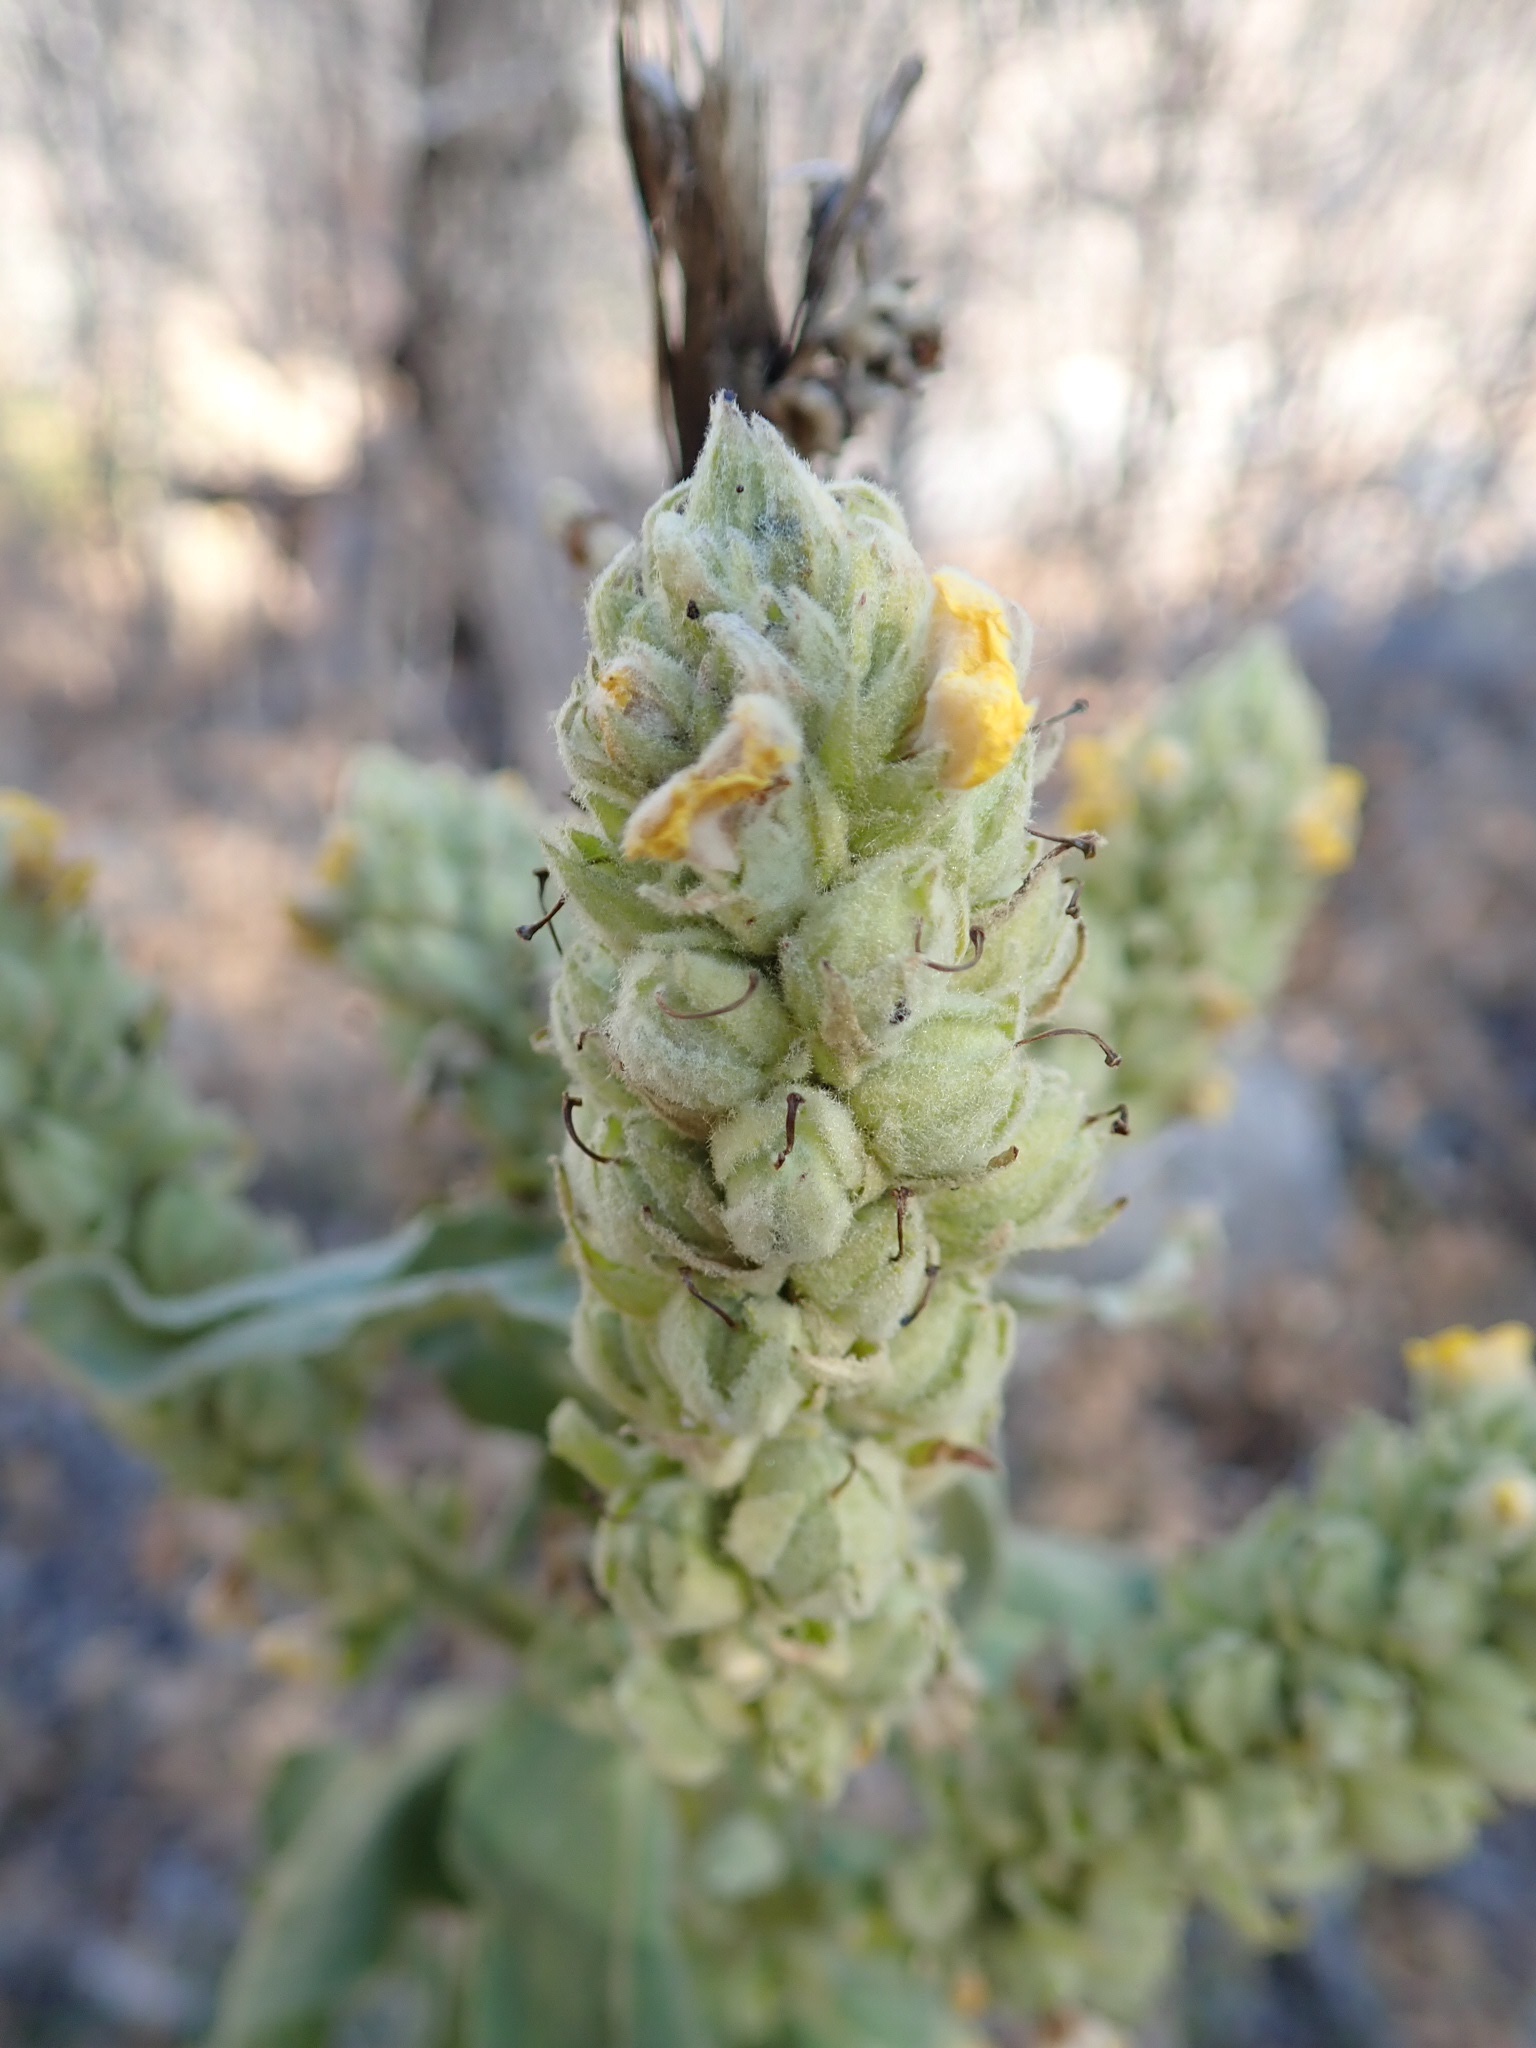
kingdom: Plantae
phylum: Tracheophyta
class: Magnoliopsida
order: Lamiales
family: Scrophulariaceae
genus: Verbascum
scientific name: Verbascum thapsus
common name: Common mullein
